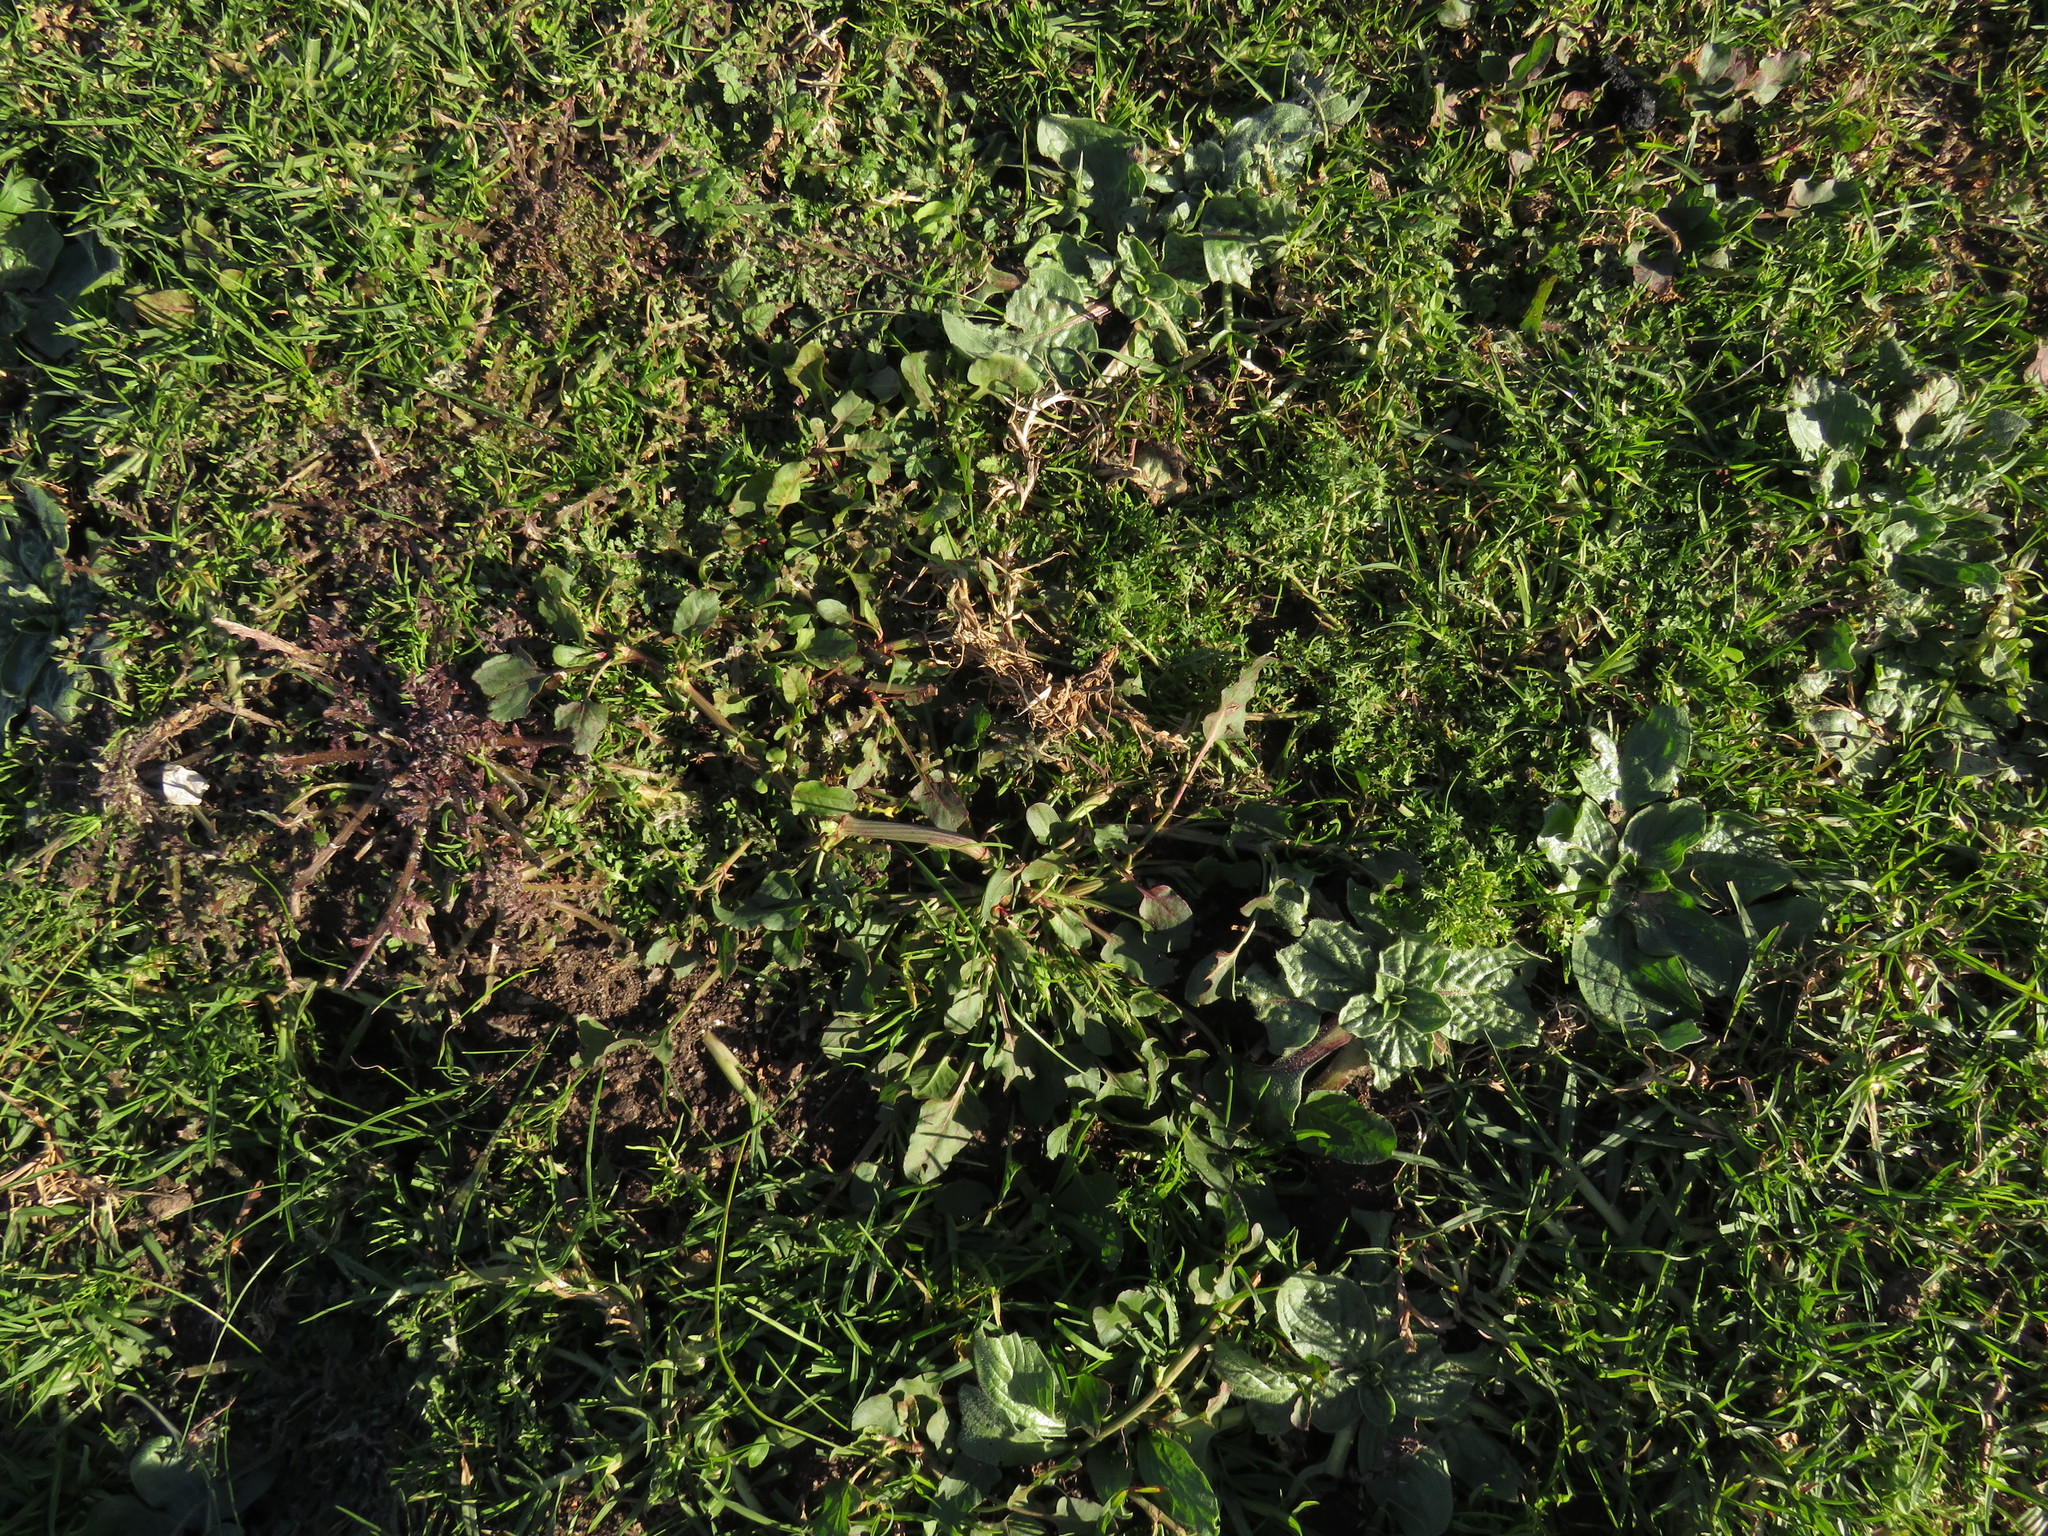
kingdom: Plantae
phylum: Tracheophyta
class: Magnoliopsida
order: Caryophyllales
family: Polygonaceae
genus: Rumex
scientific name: Rumex hypogaeus
